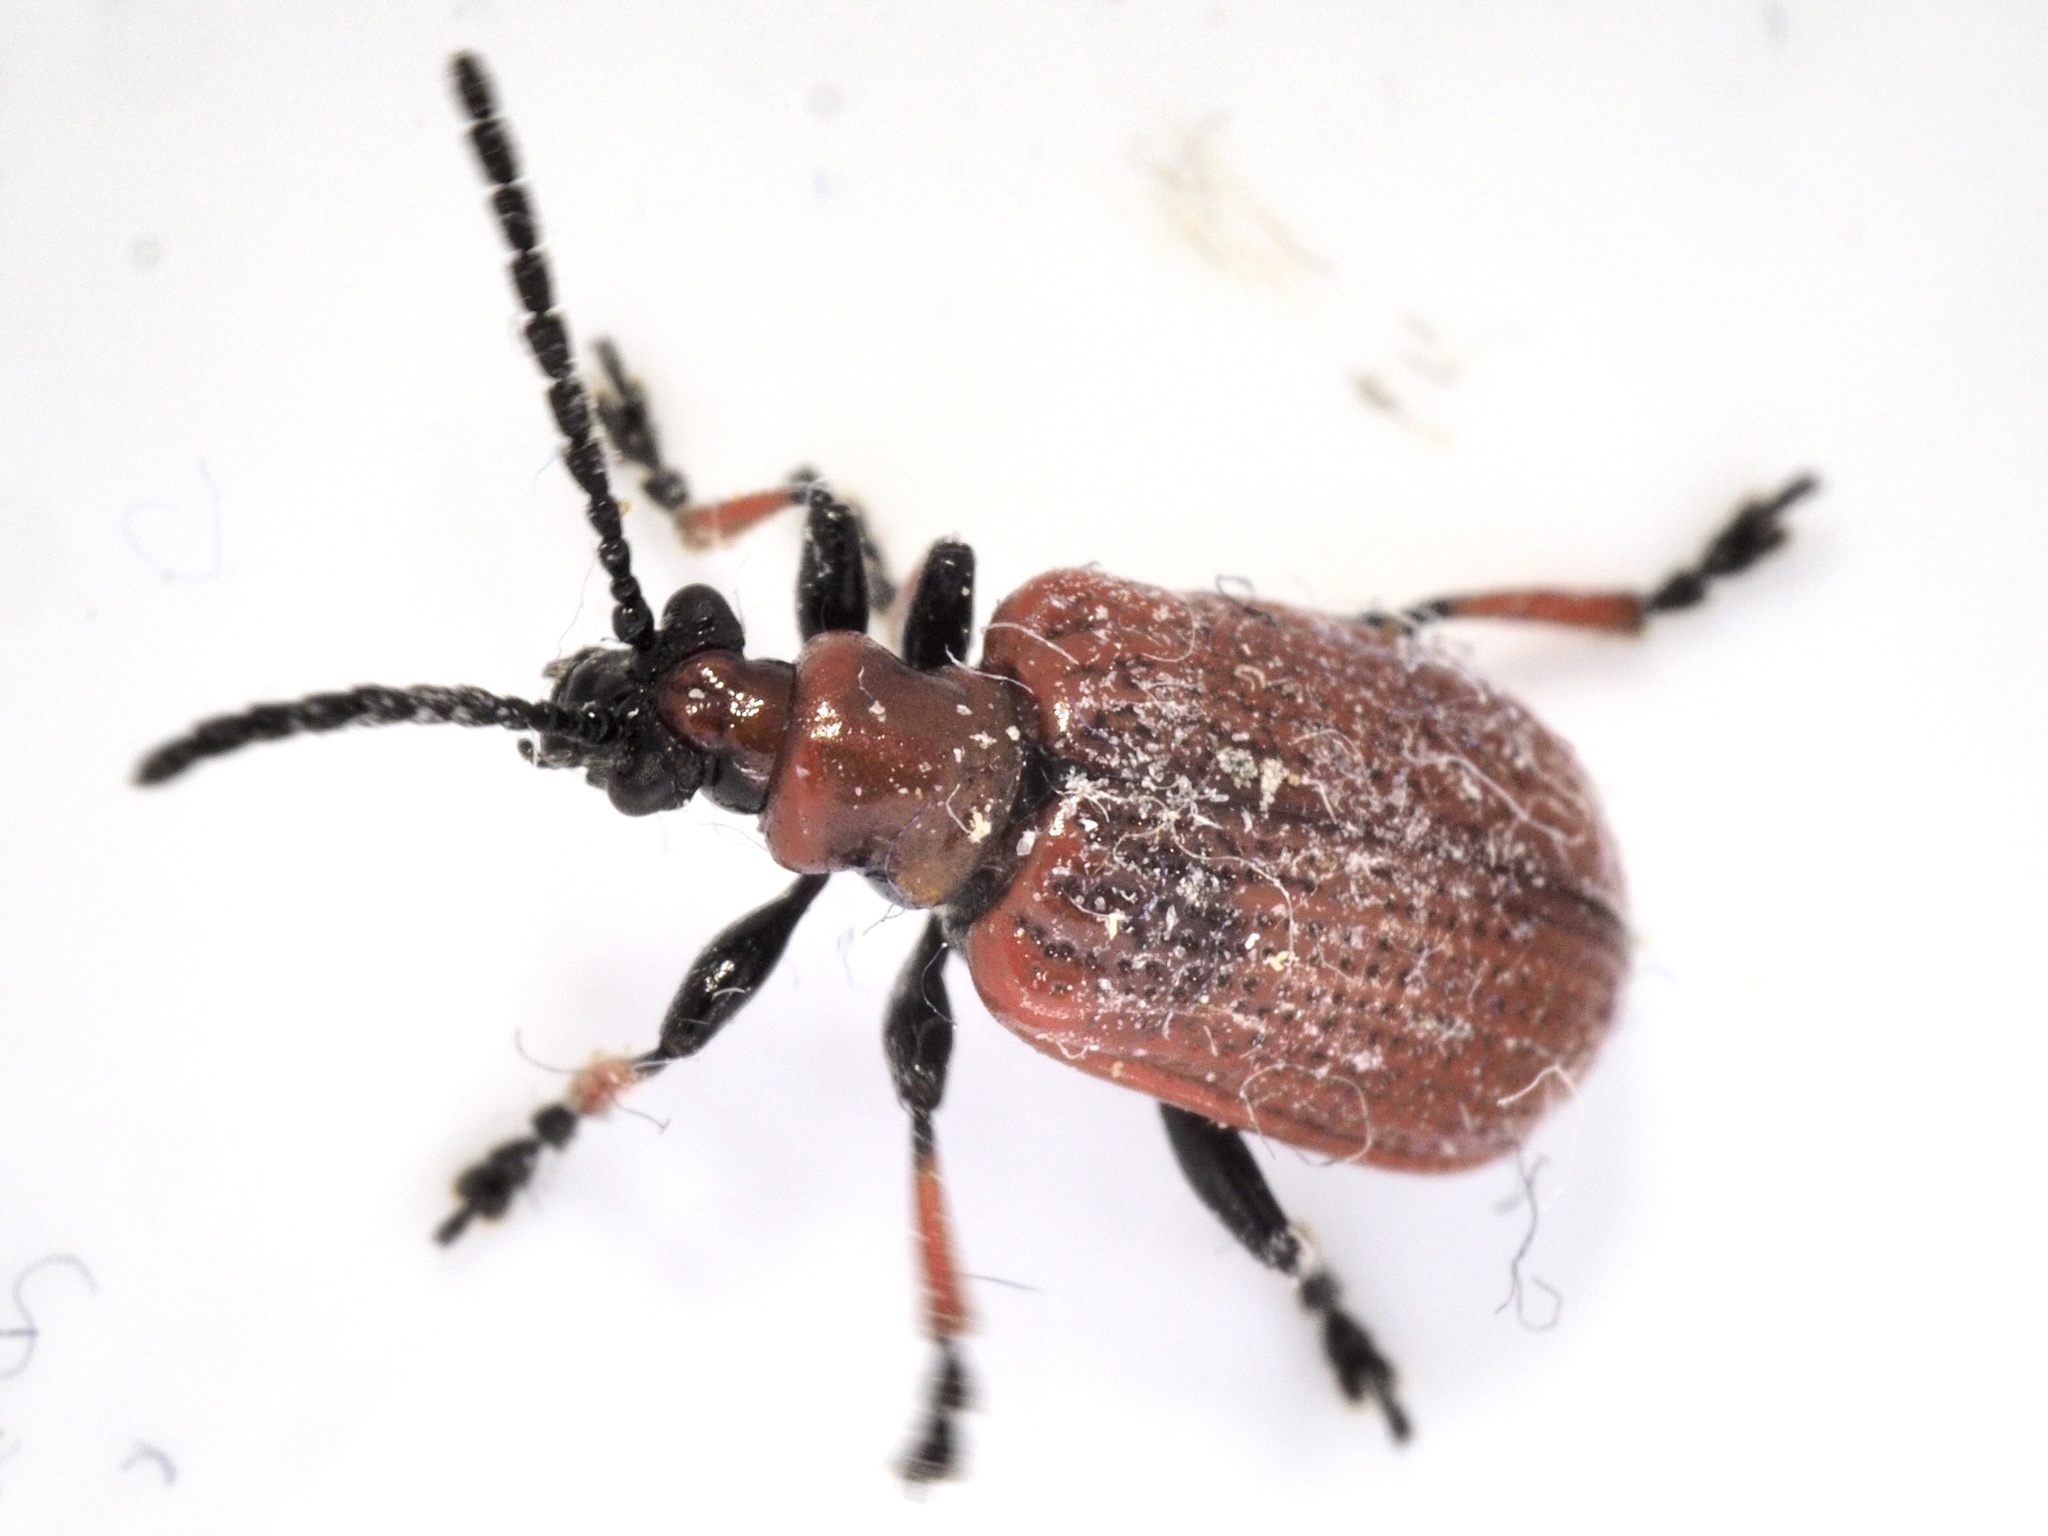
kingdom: Animalia
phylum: Arthropoda
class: Insecta
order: Coleoptera
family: Chrysomelidae
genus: Lilioceris
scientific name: Lilioceris tibialis
